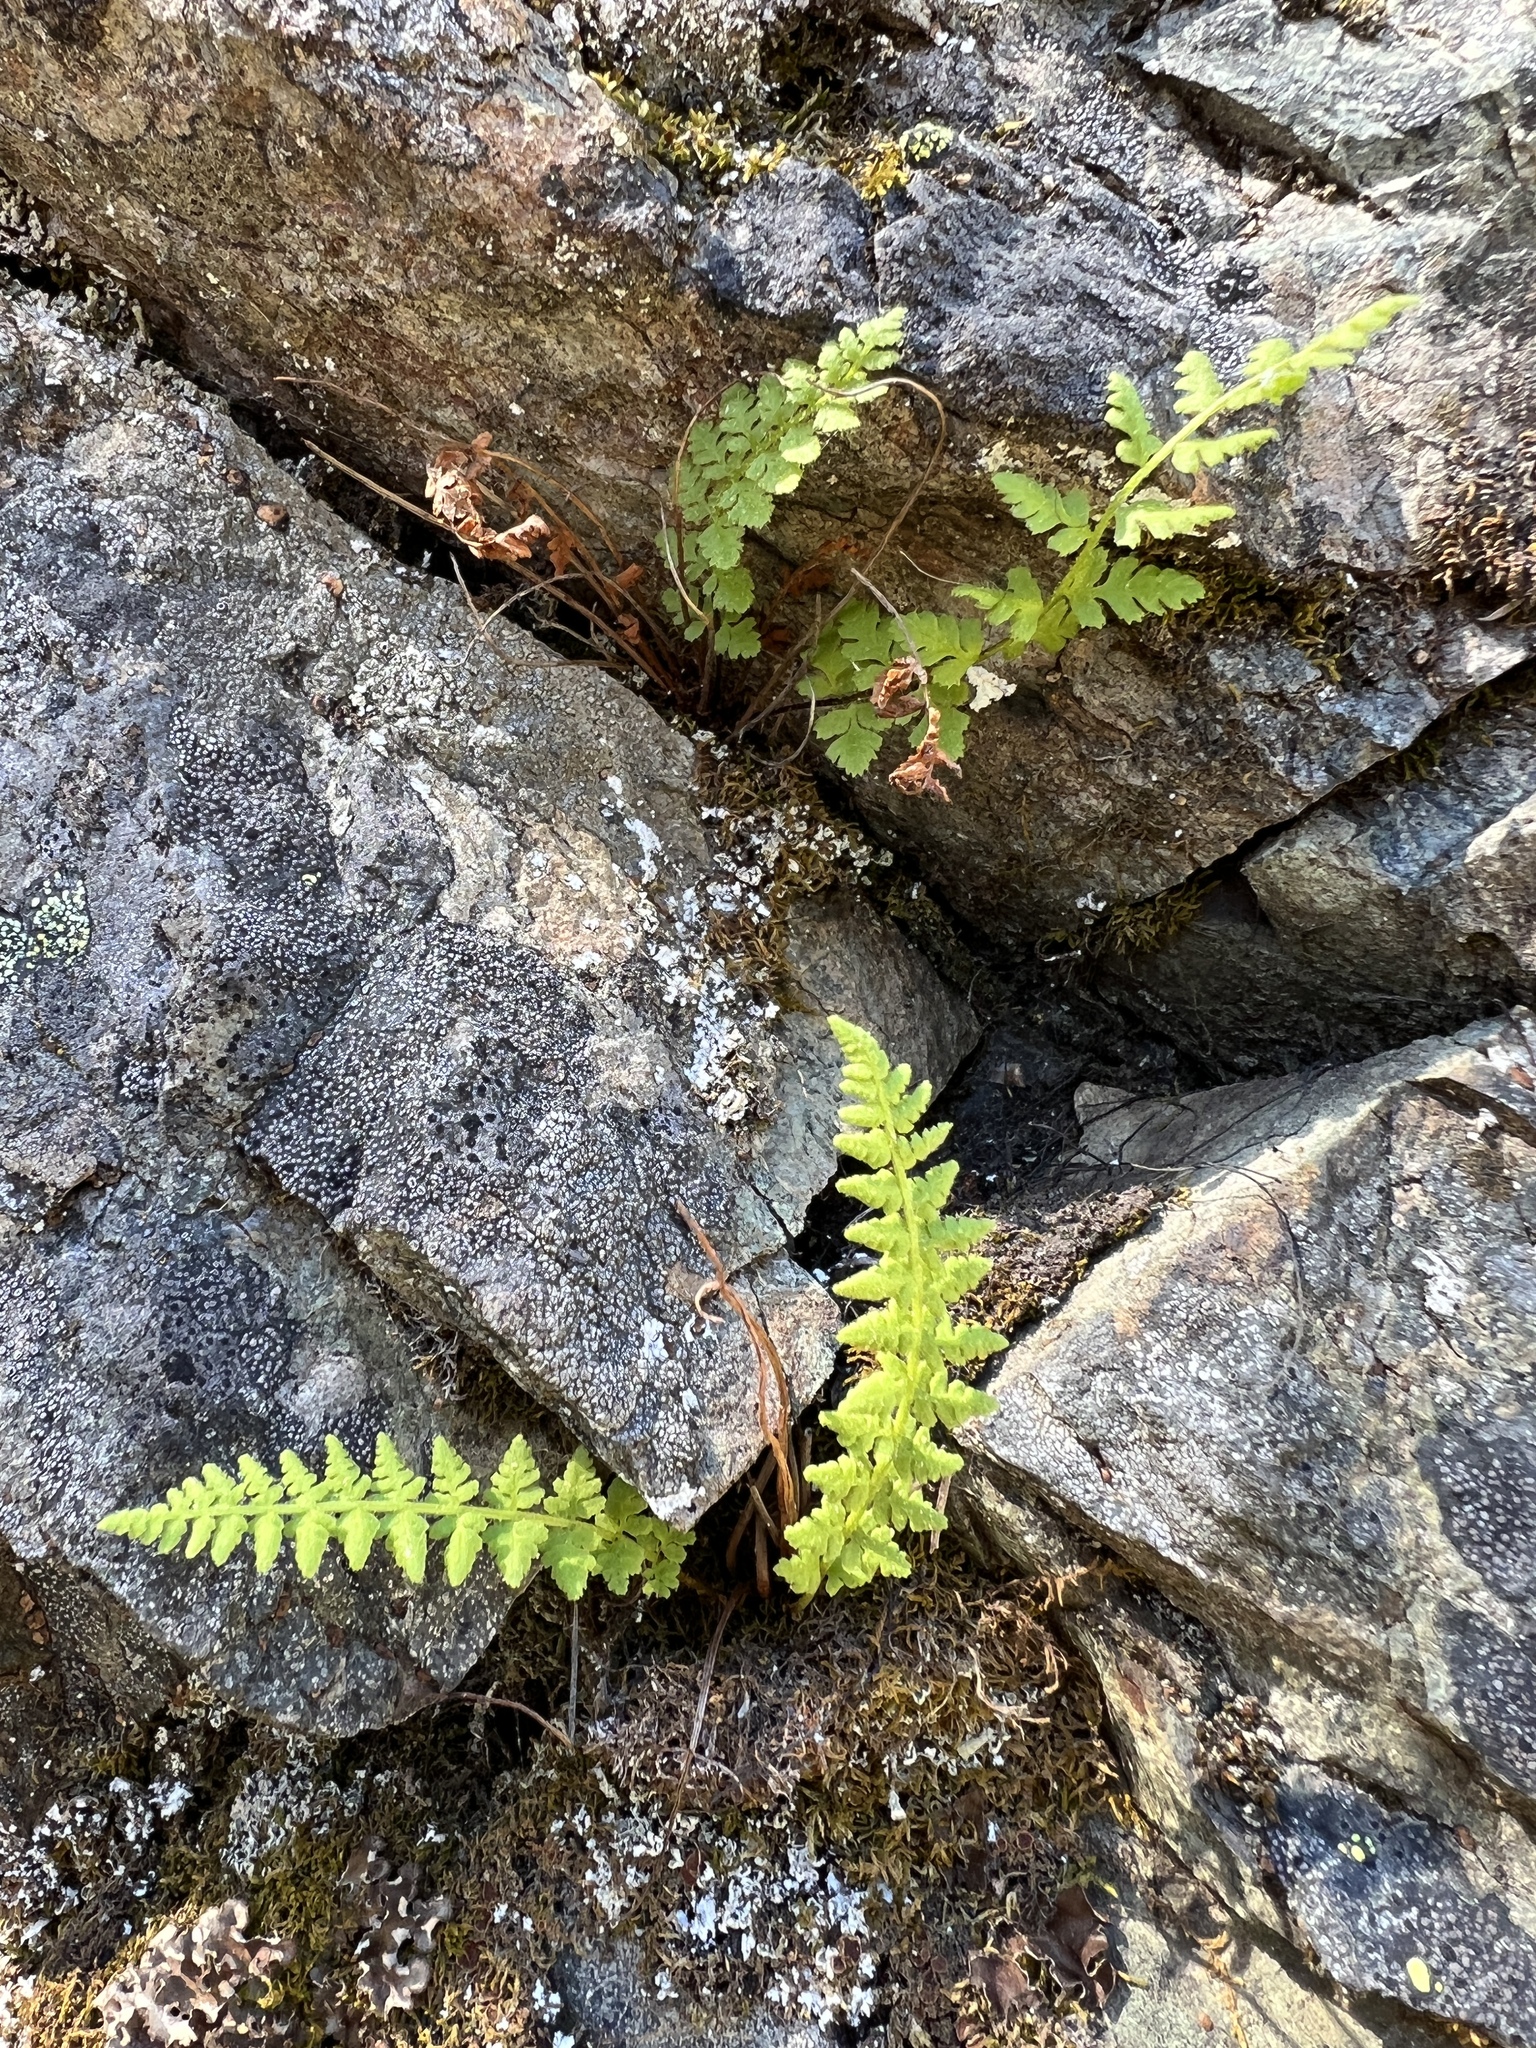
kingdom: Plantae
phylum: Tracheophyta
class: Polypodiopsida
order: Polypodiales
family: Woodsiaceae
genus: Physematium
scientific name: Physematium scopulinum
